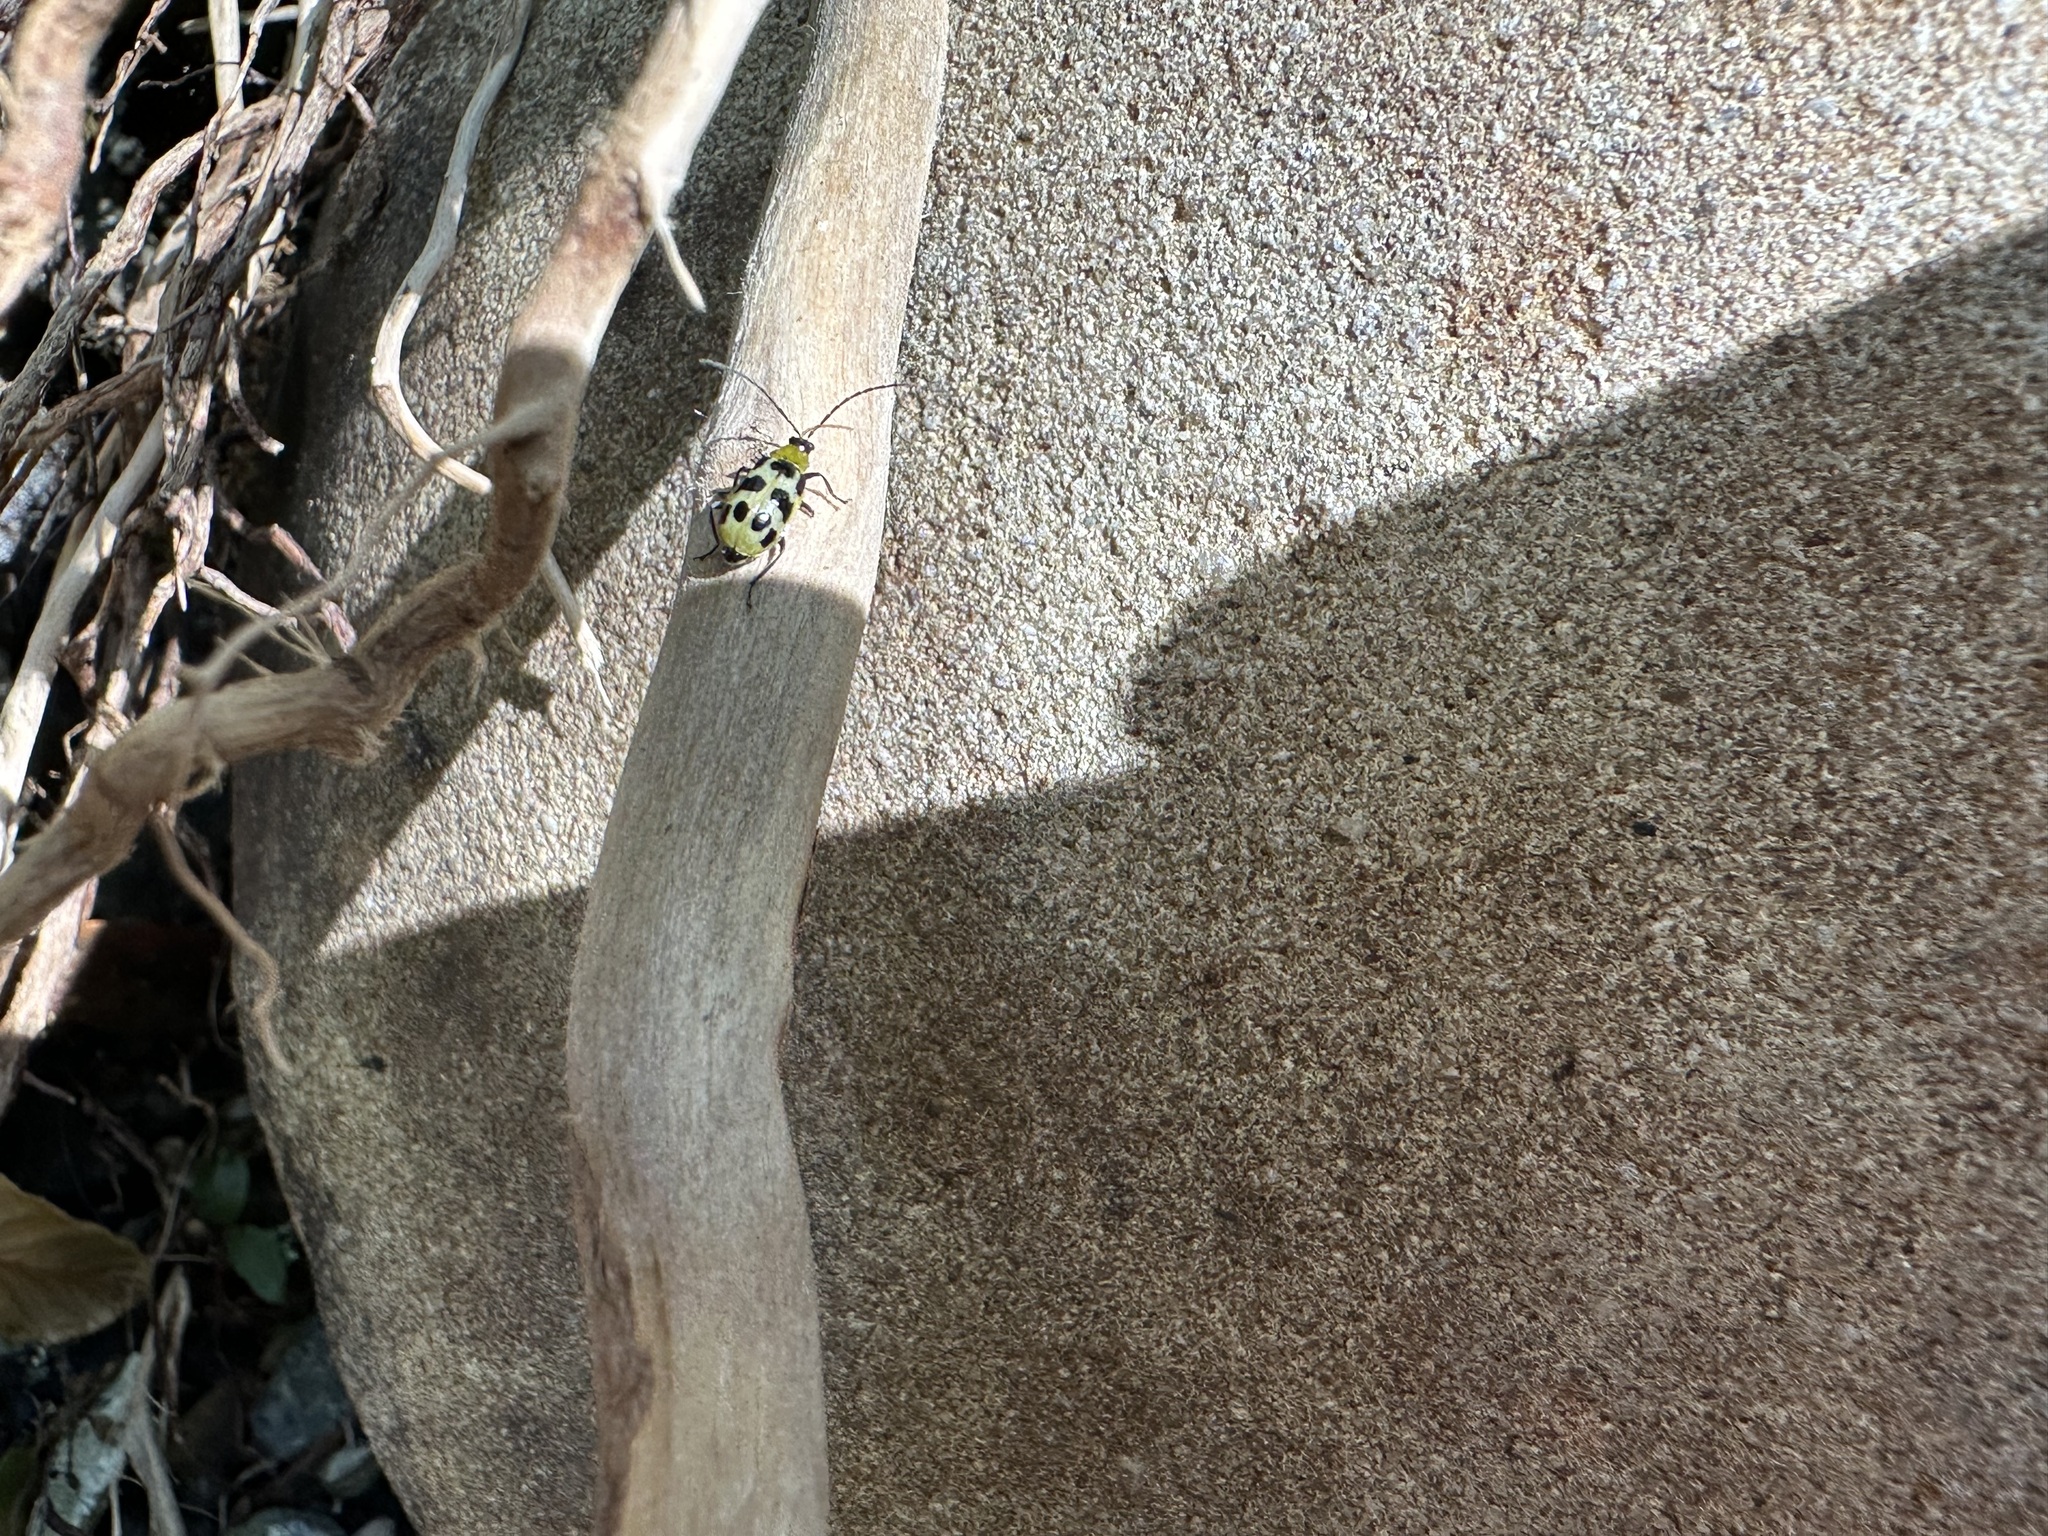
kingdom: Animalia
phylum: Arthropoda
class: Insecta
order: Coleoptera
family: Chrysomelidae
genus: Diabrotica
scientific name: Diabrotica undecimpunctata
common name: Spotted cucumber beetle
